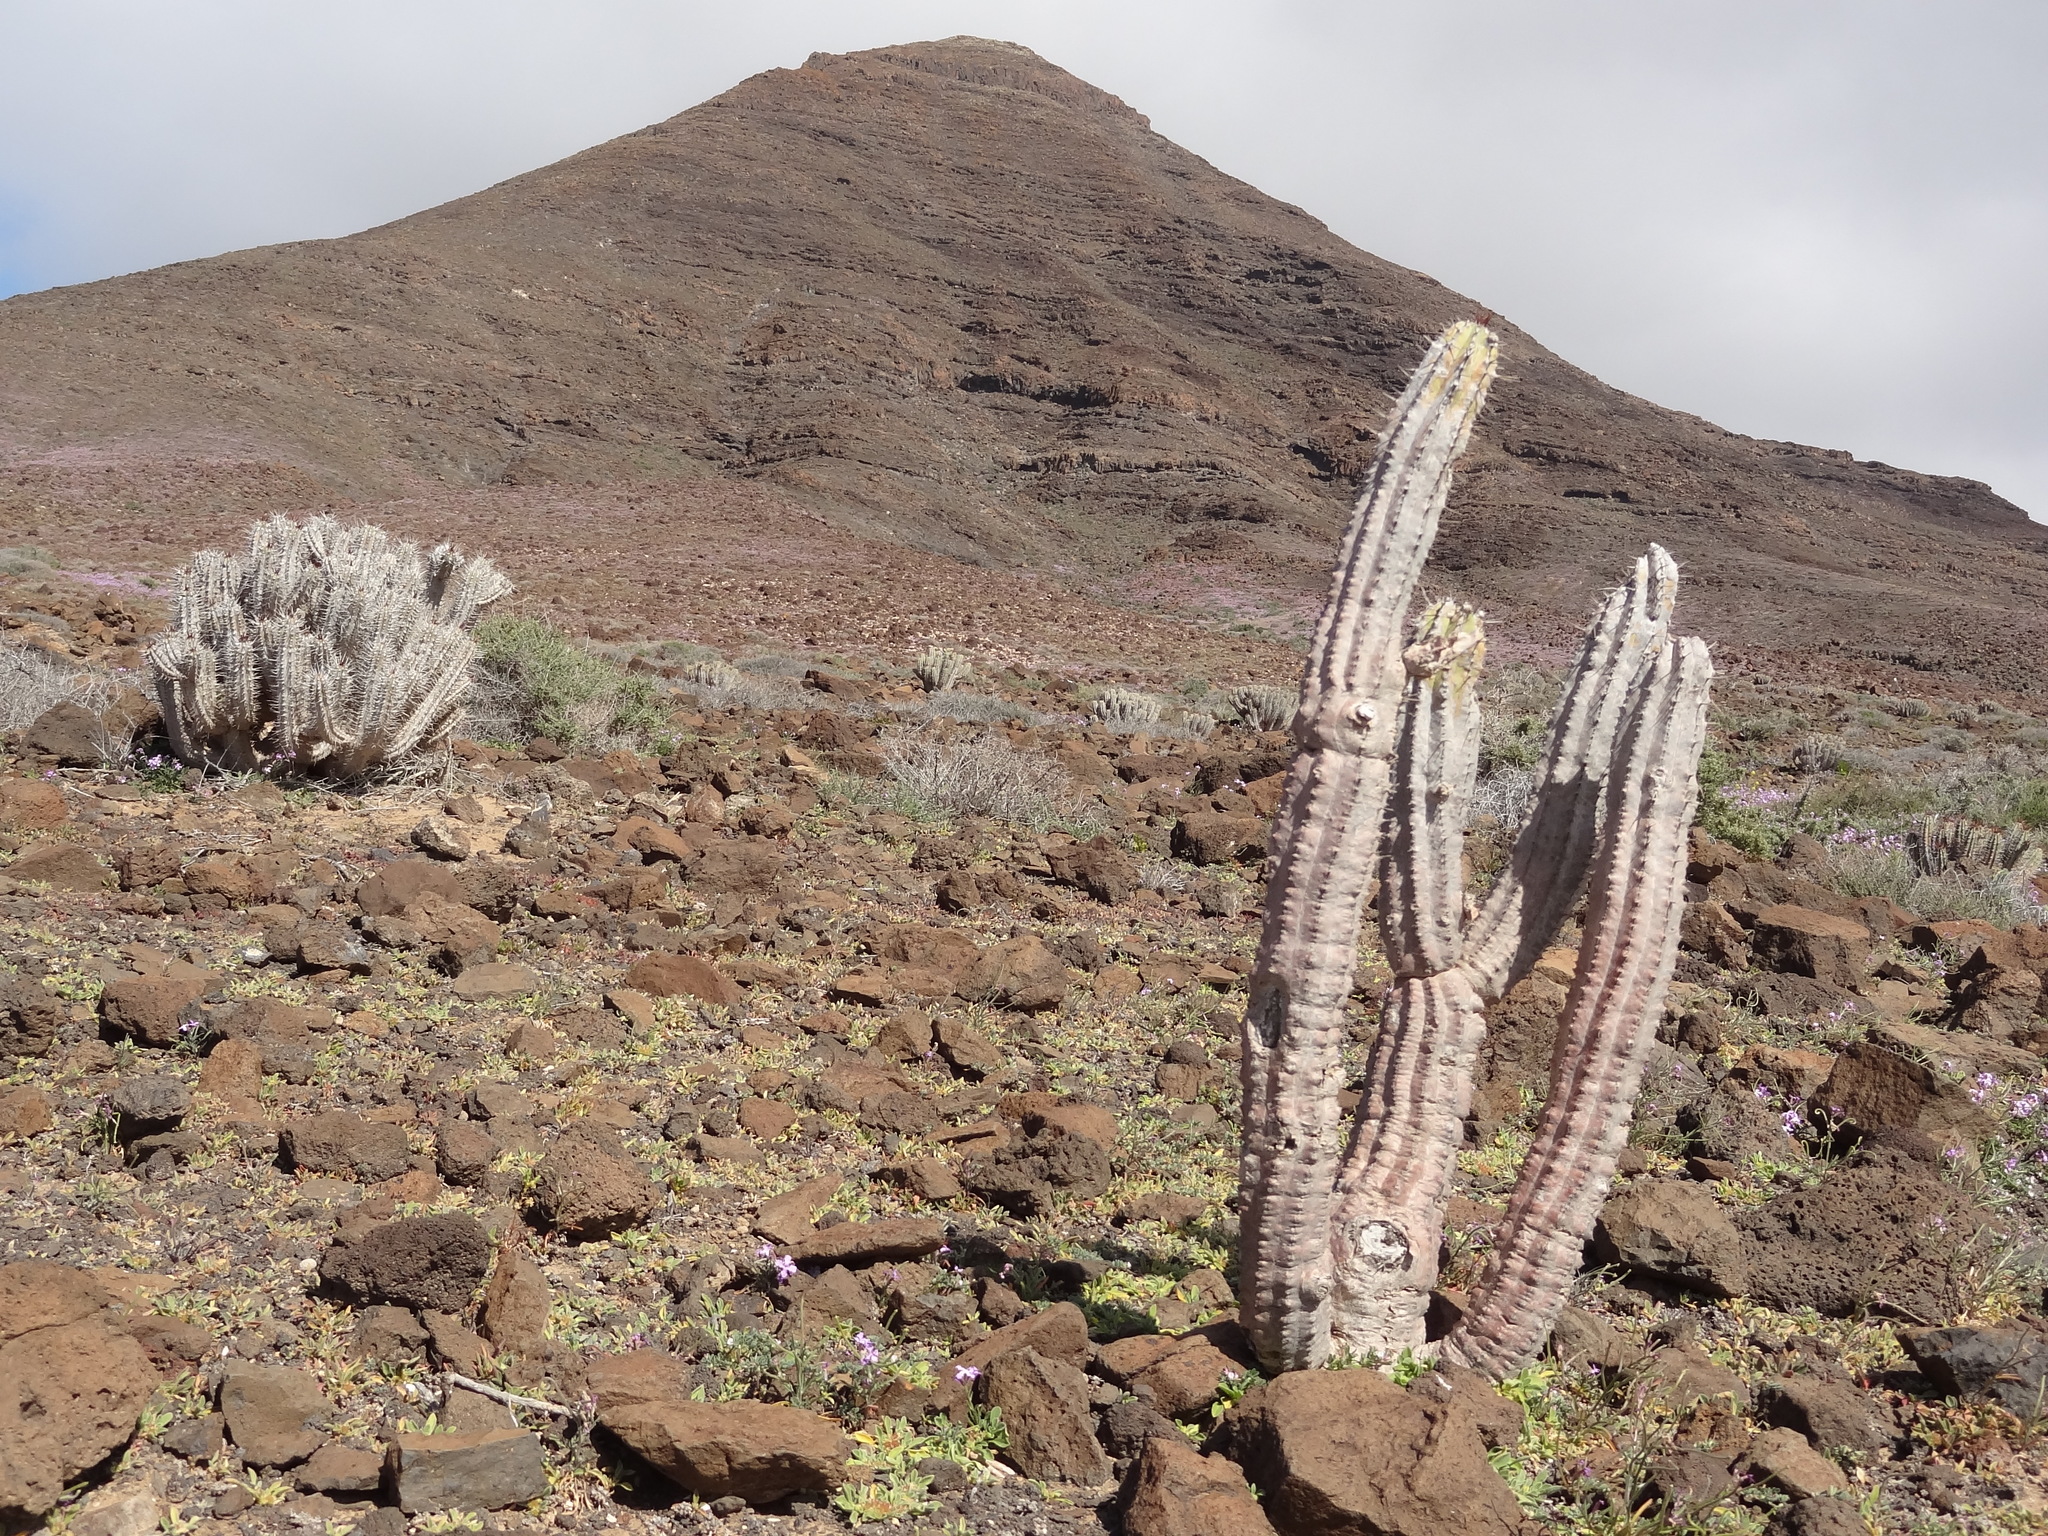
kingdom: Plantae
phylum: Tracheophyta
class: Magnoliopsida
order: Malpighiales
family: Euphorbiaceae
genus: Euphorbia
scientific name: Euphorbia handiensis
